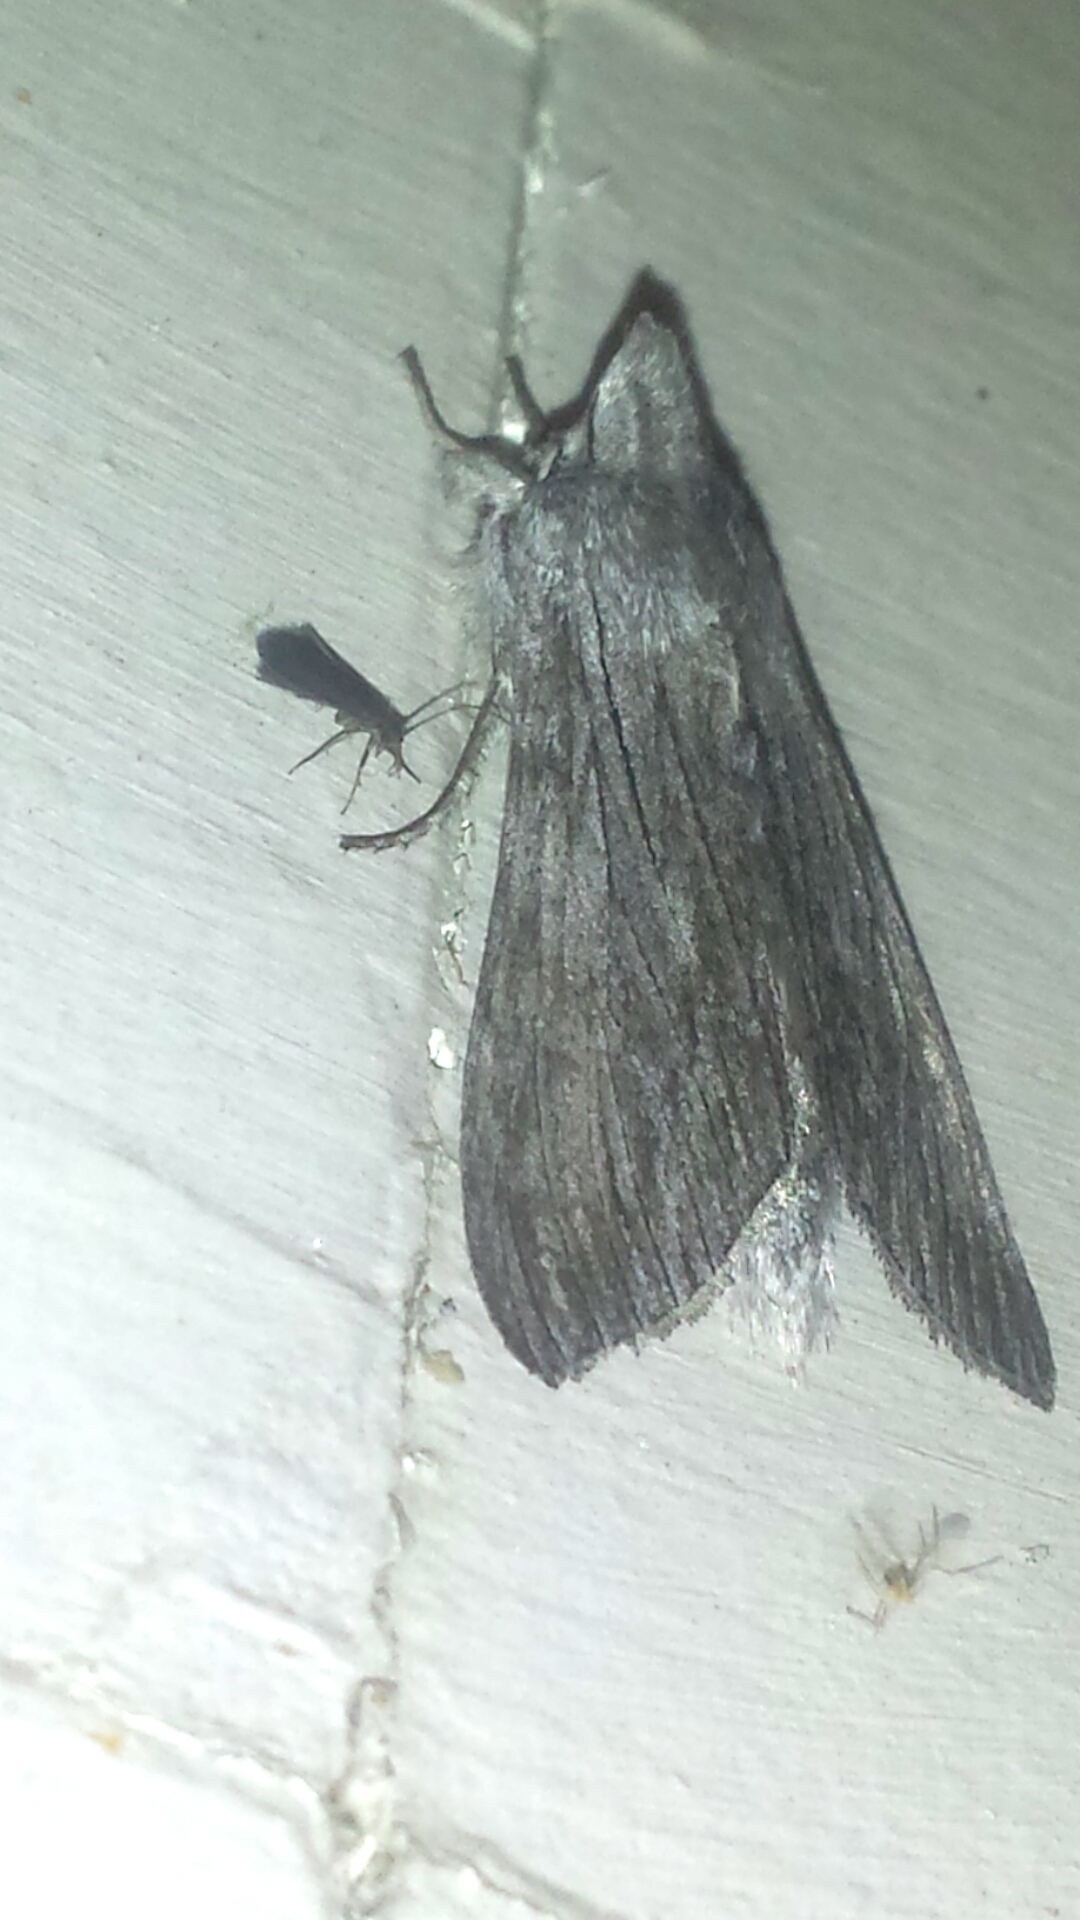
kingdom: Animalia
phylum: Arthropoda
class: Insecta
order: Lepidoptera
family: Noctuidae
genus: Cucullia
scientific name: Cucullia intermedia
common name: Goldenrod cutworm
